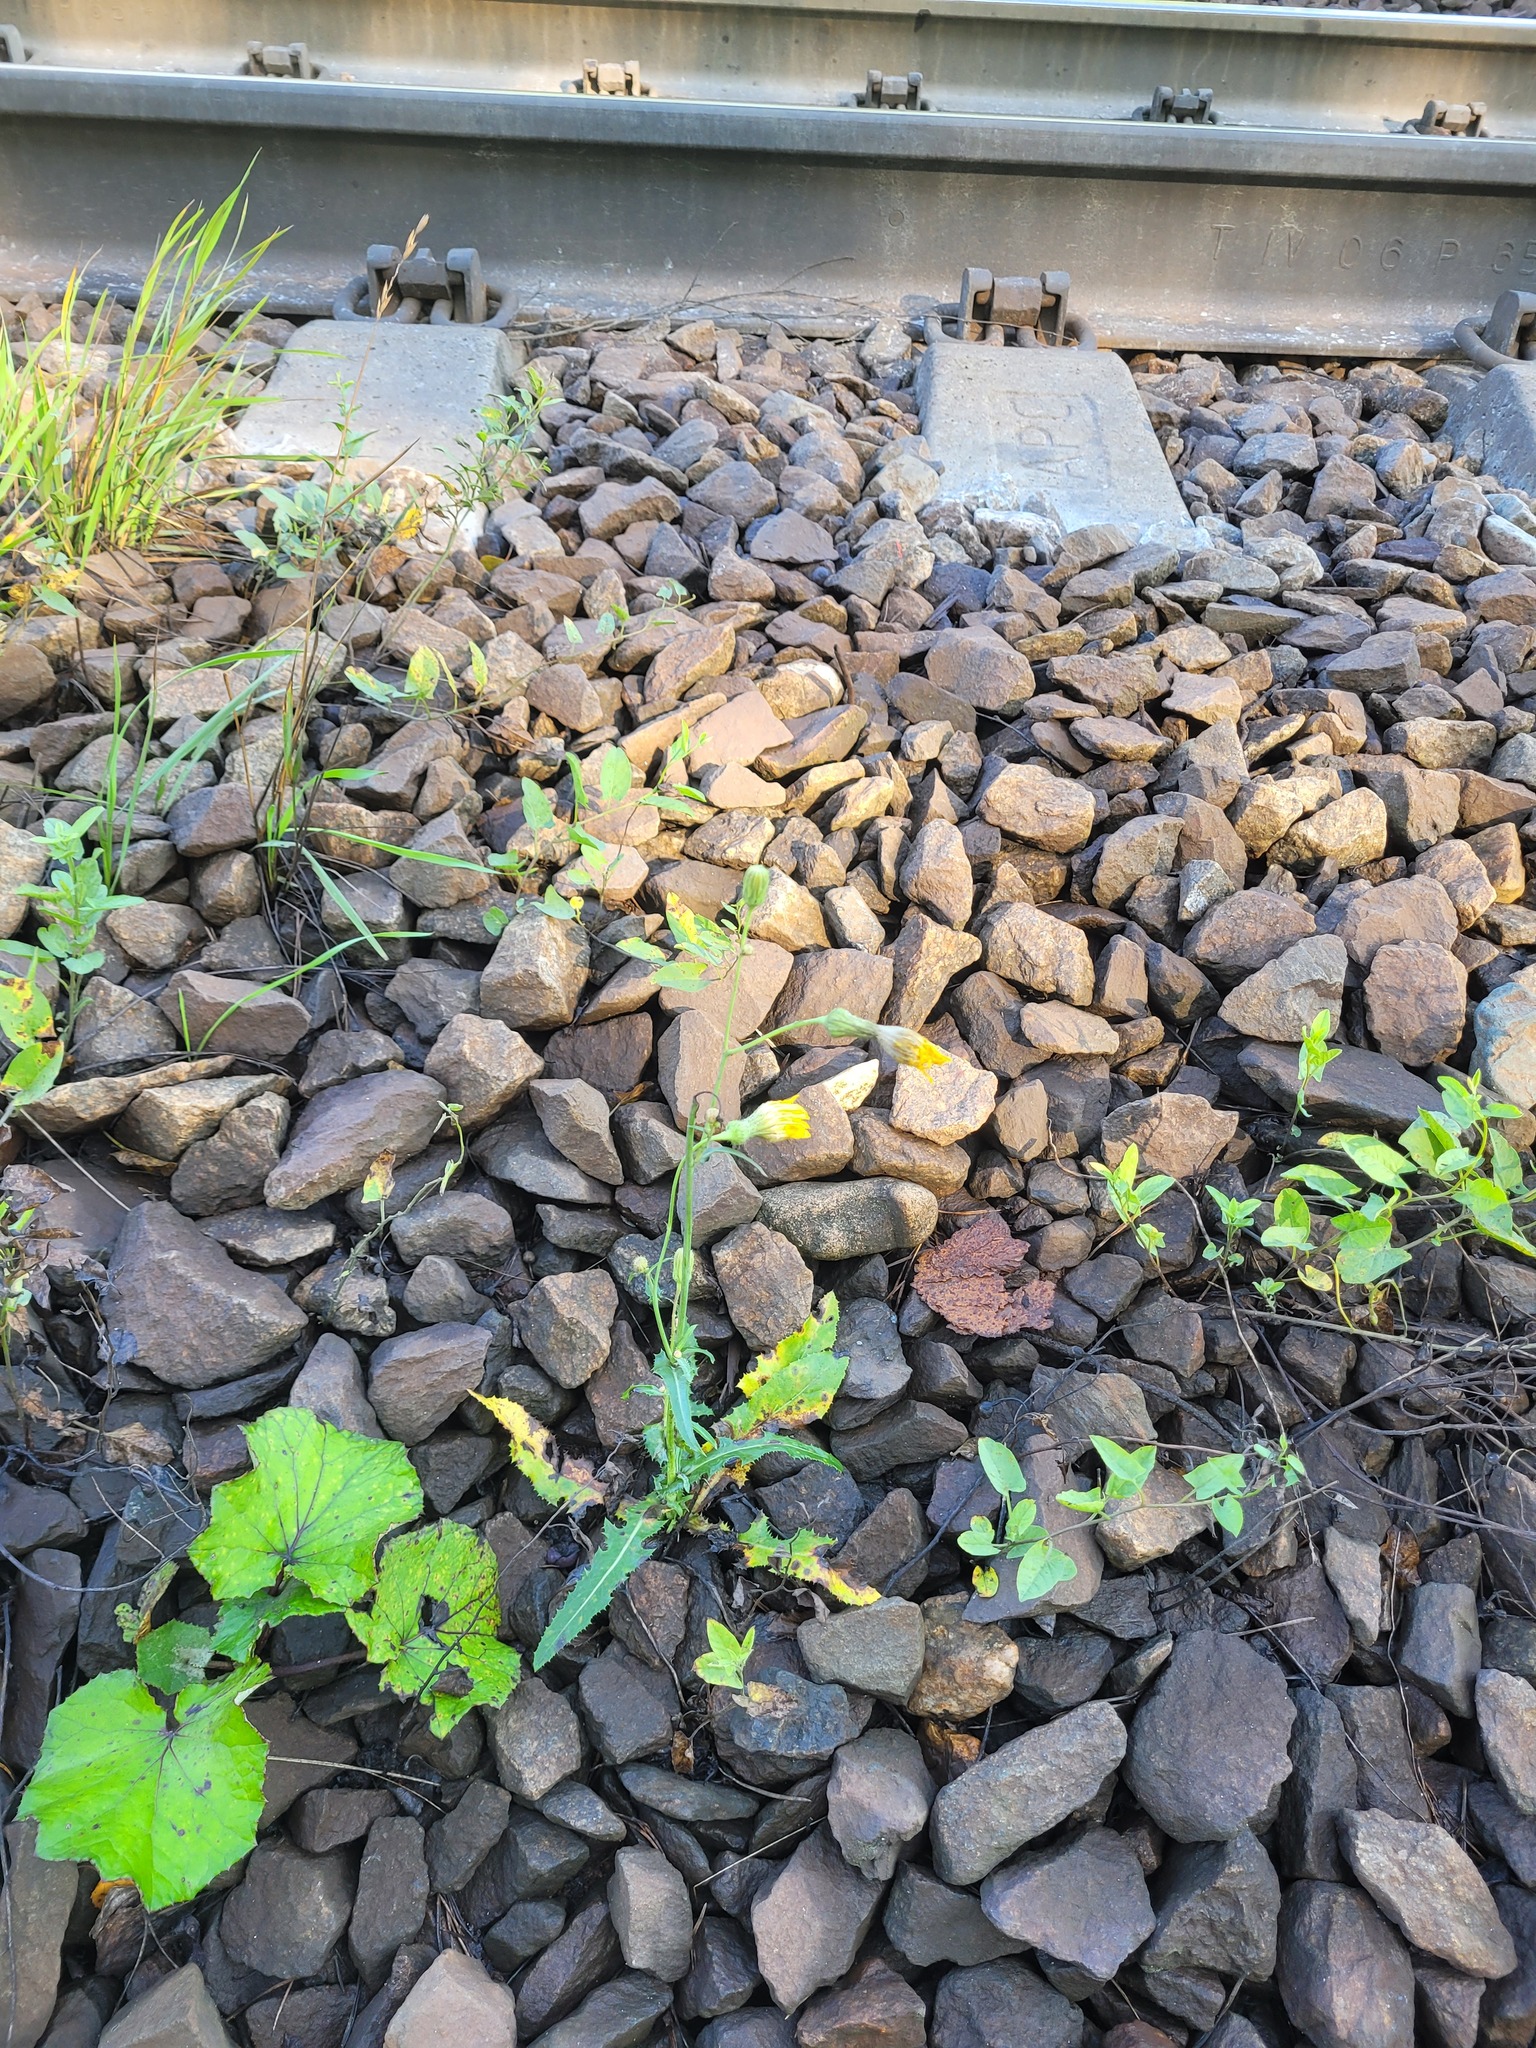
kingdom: Plantae
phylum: Tracheophyta
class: Magnoliopsida
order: Asterales
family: Asteraceae
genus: Sonchus
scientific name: Sonchus arvensis
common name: Perennial sow-thistle
